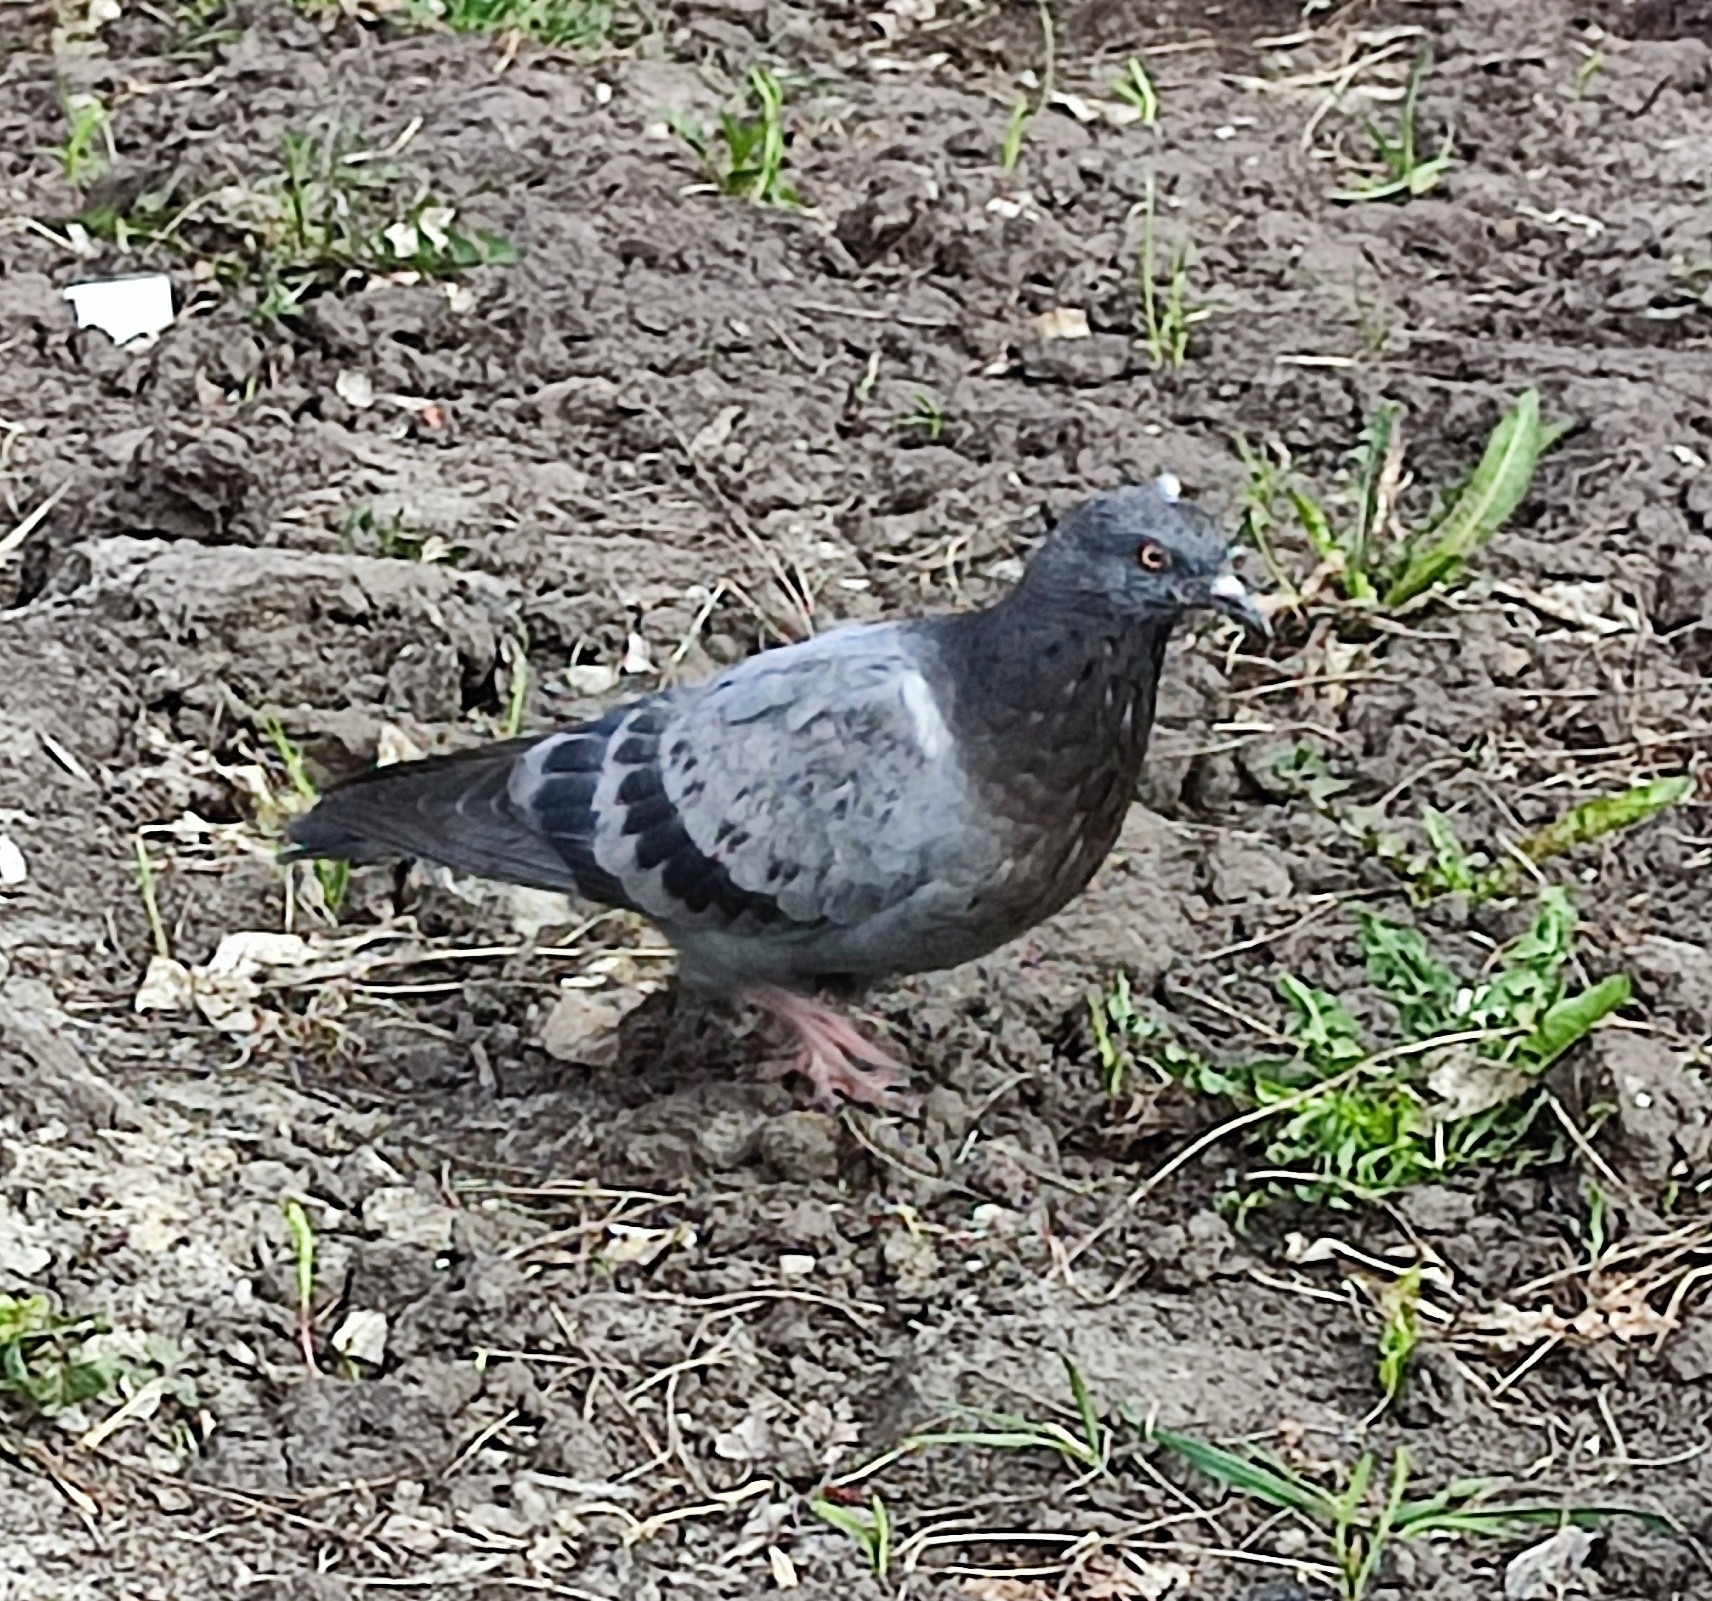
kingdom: Animalia
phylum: Chordata
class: Aves
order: Columbiformes
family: Columbidae
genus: Columba
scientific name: Columba livia
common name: Rock pigeon
